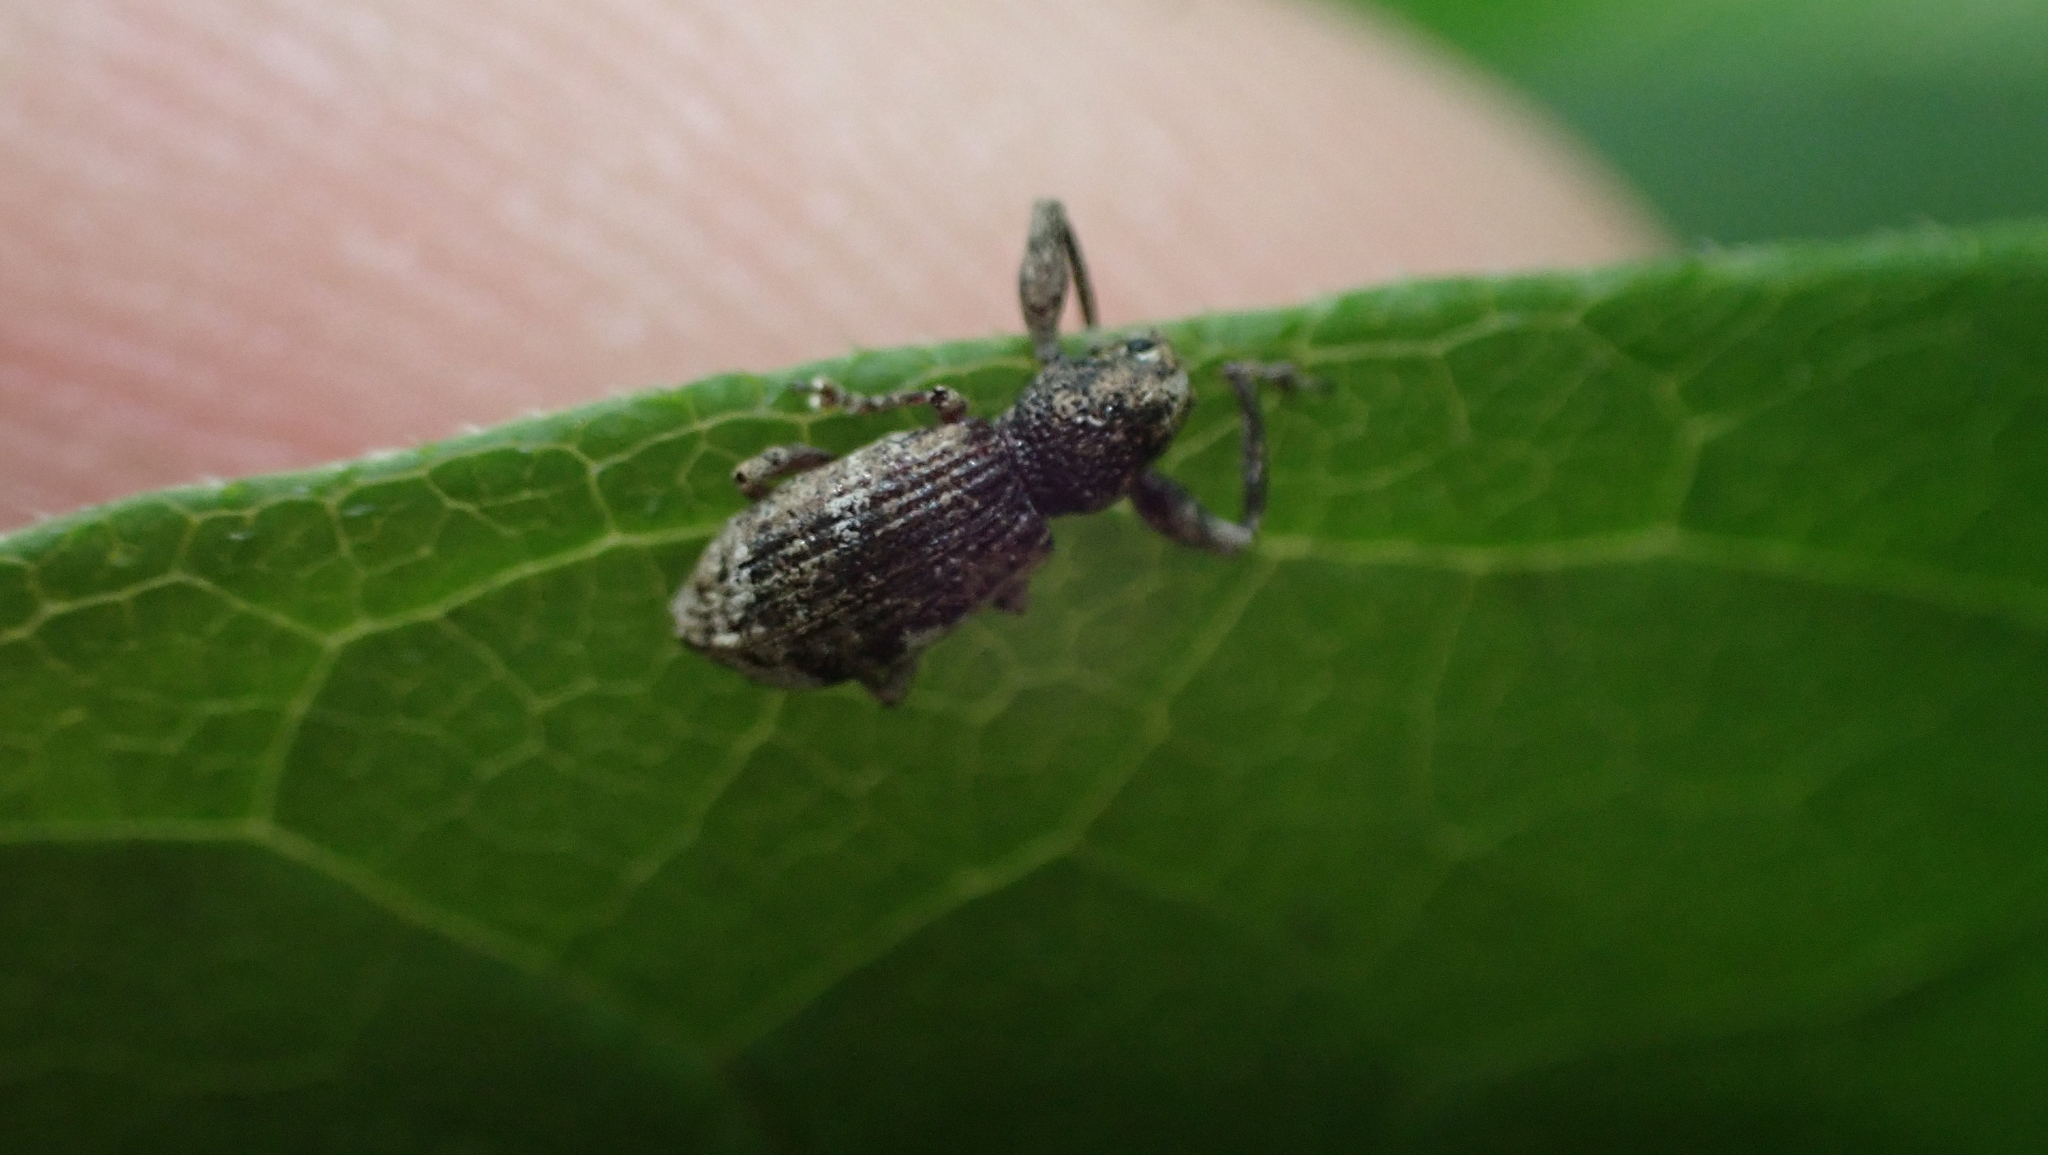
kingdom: Animalia
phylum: Arthropoda
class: Insecta
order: Coleoptera
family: Curculionidae
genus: Pandeleteius
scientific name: Pandeleteius hilaris
